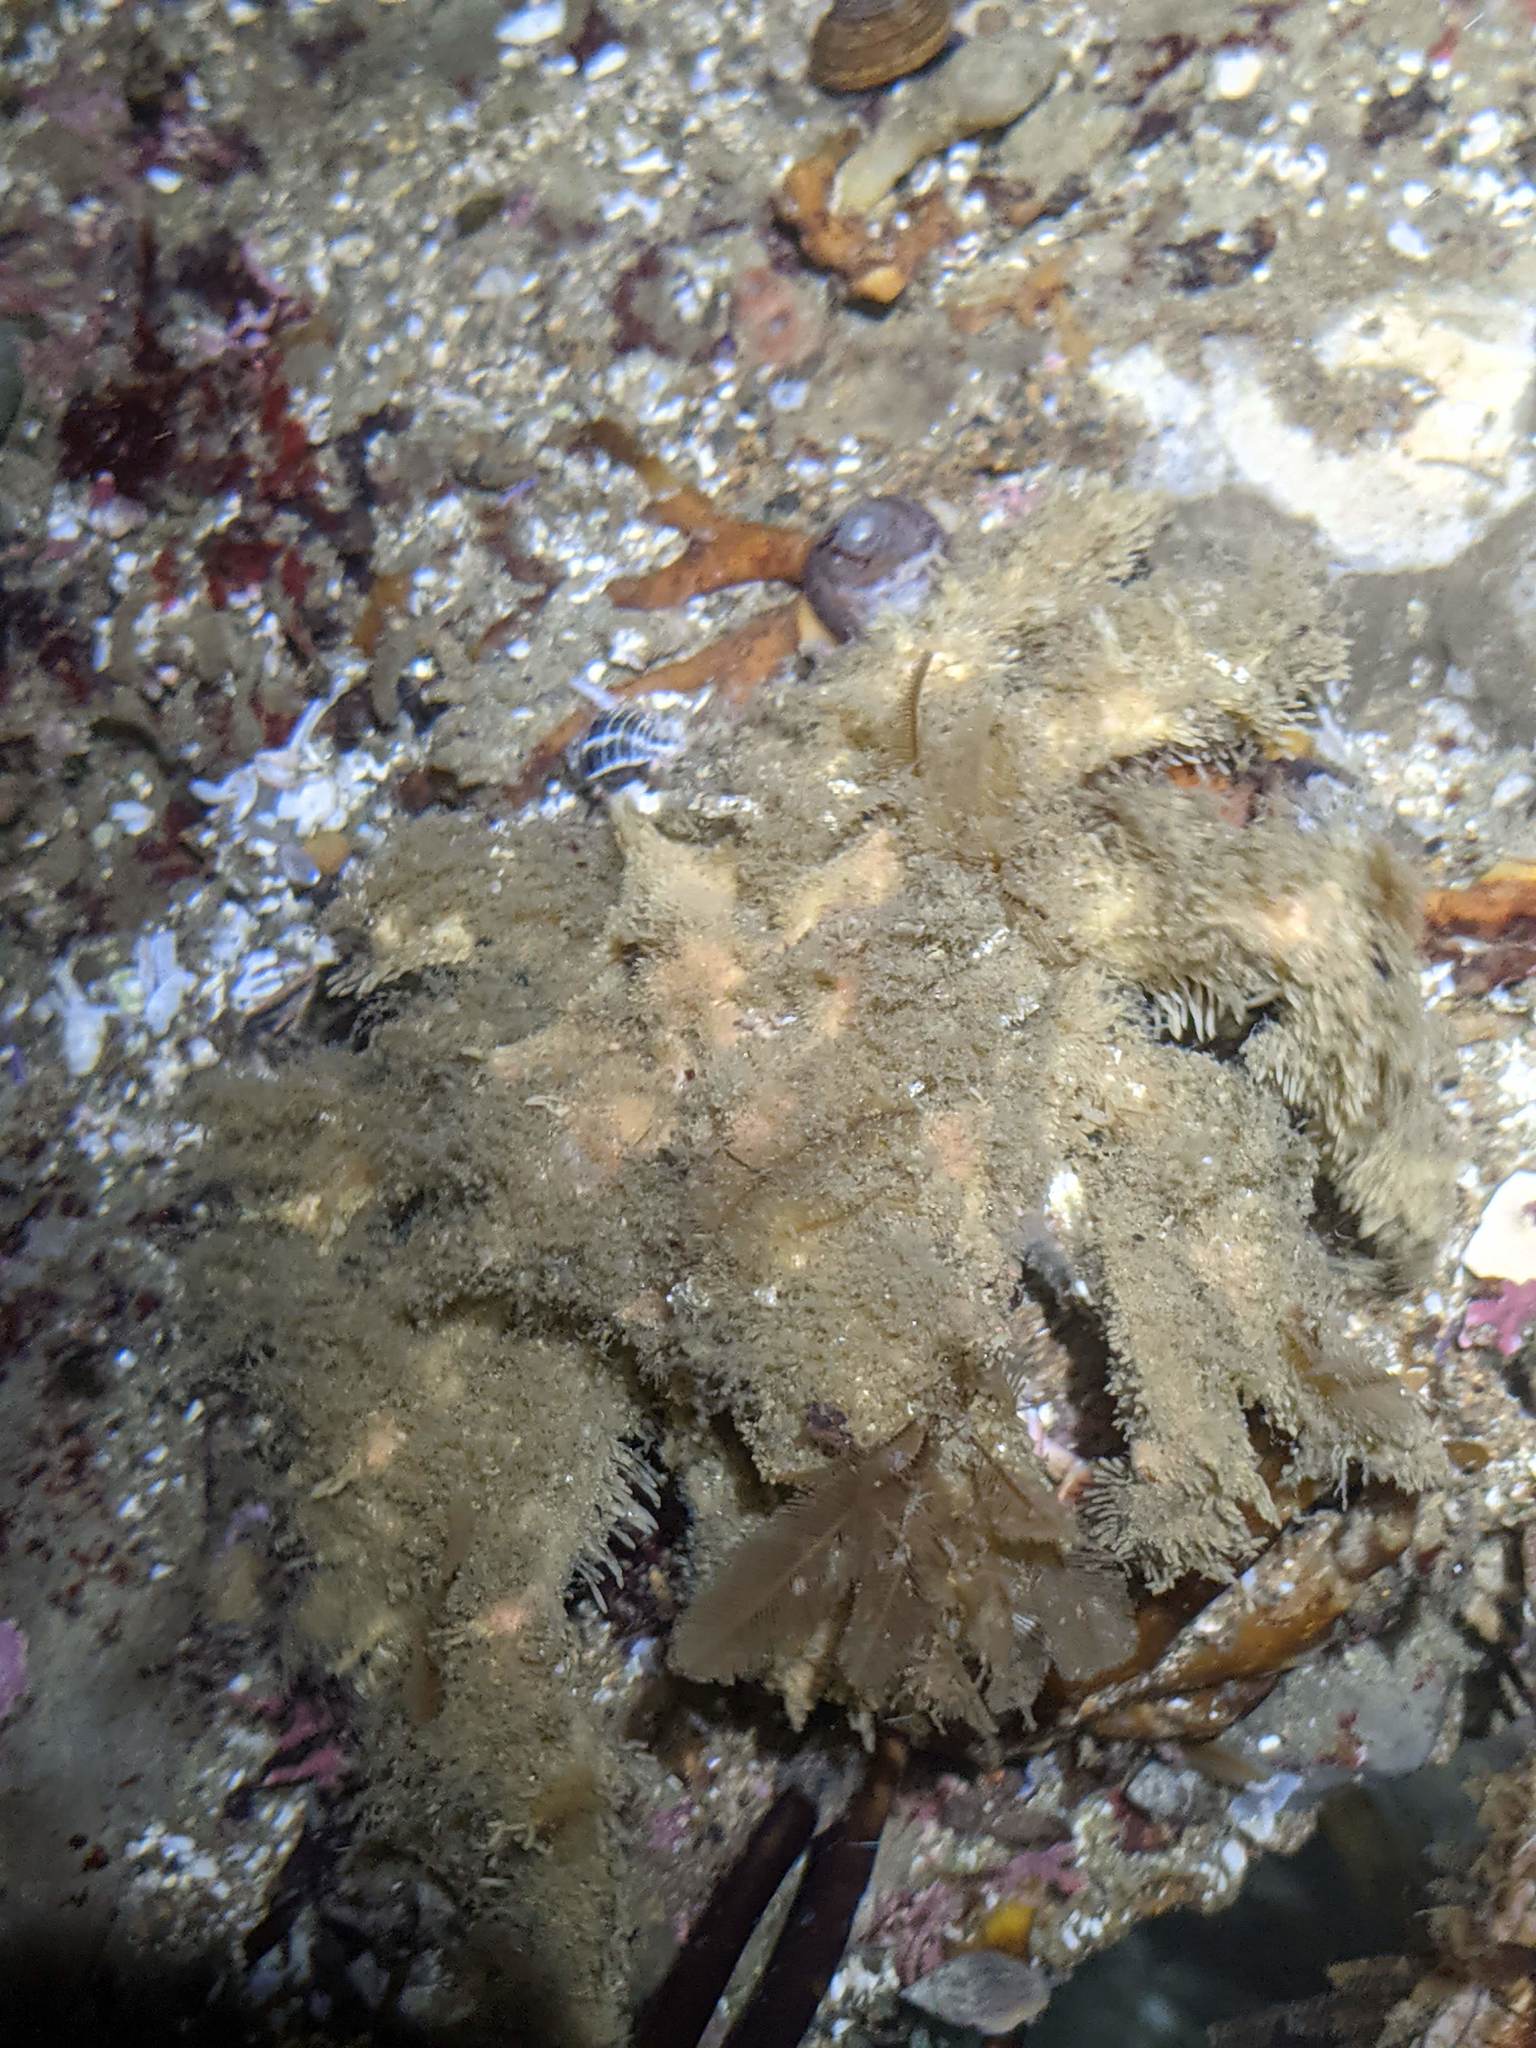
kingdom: Animalia
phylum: Arthropoda
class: Malacostraca
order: Decapoda
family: Epialtidae
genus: Loxorhynchus
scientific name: Loxorhynchus crispatus
